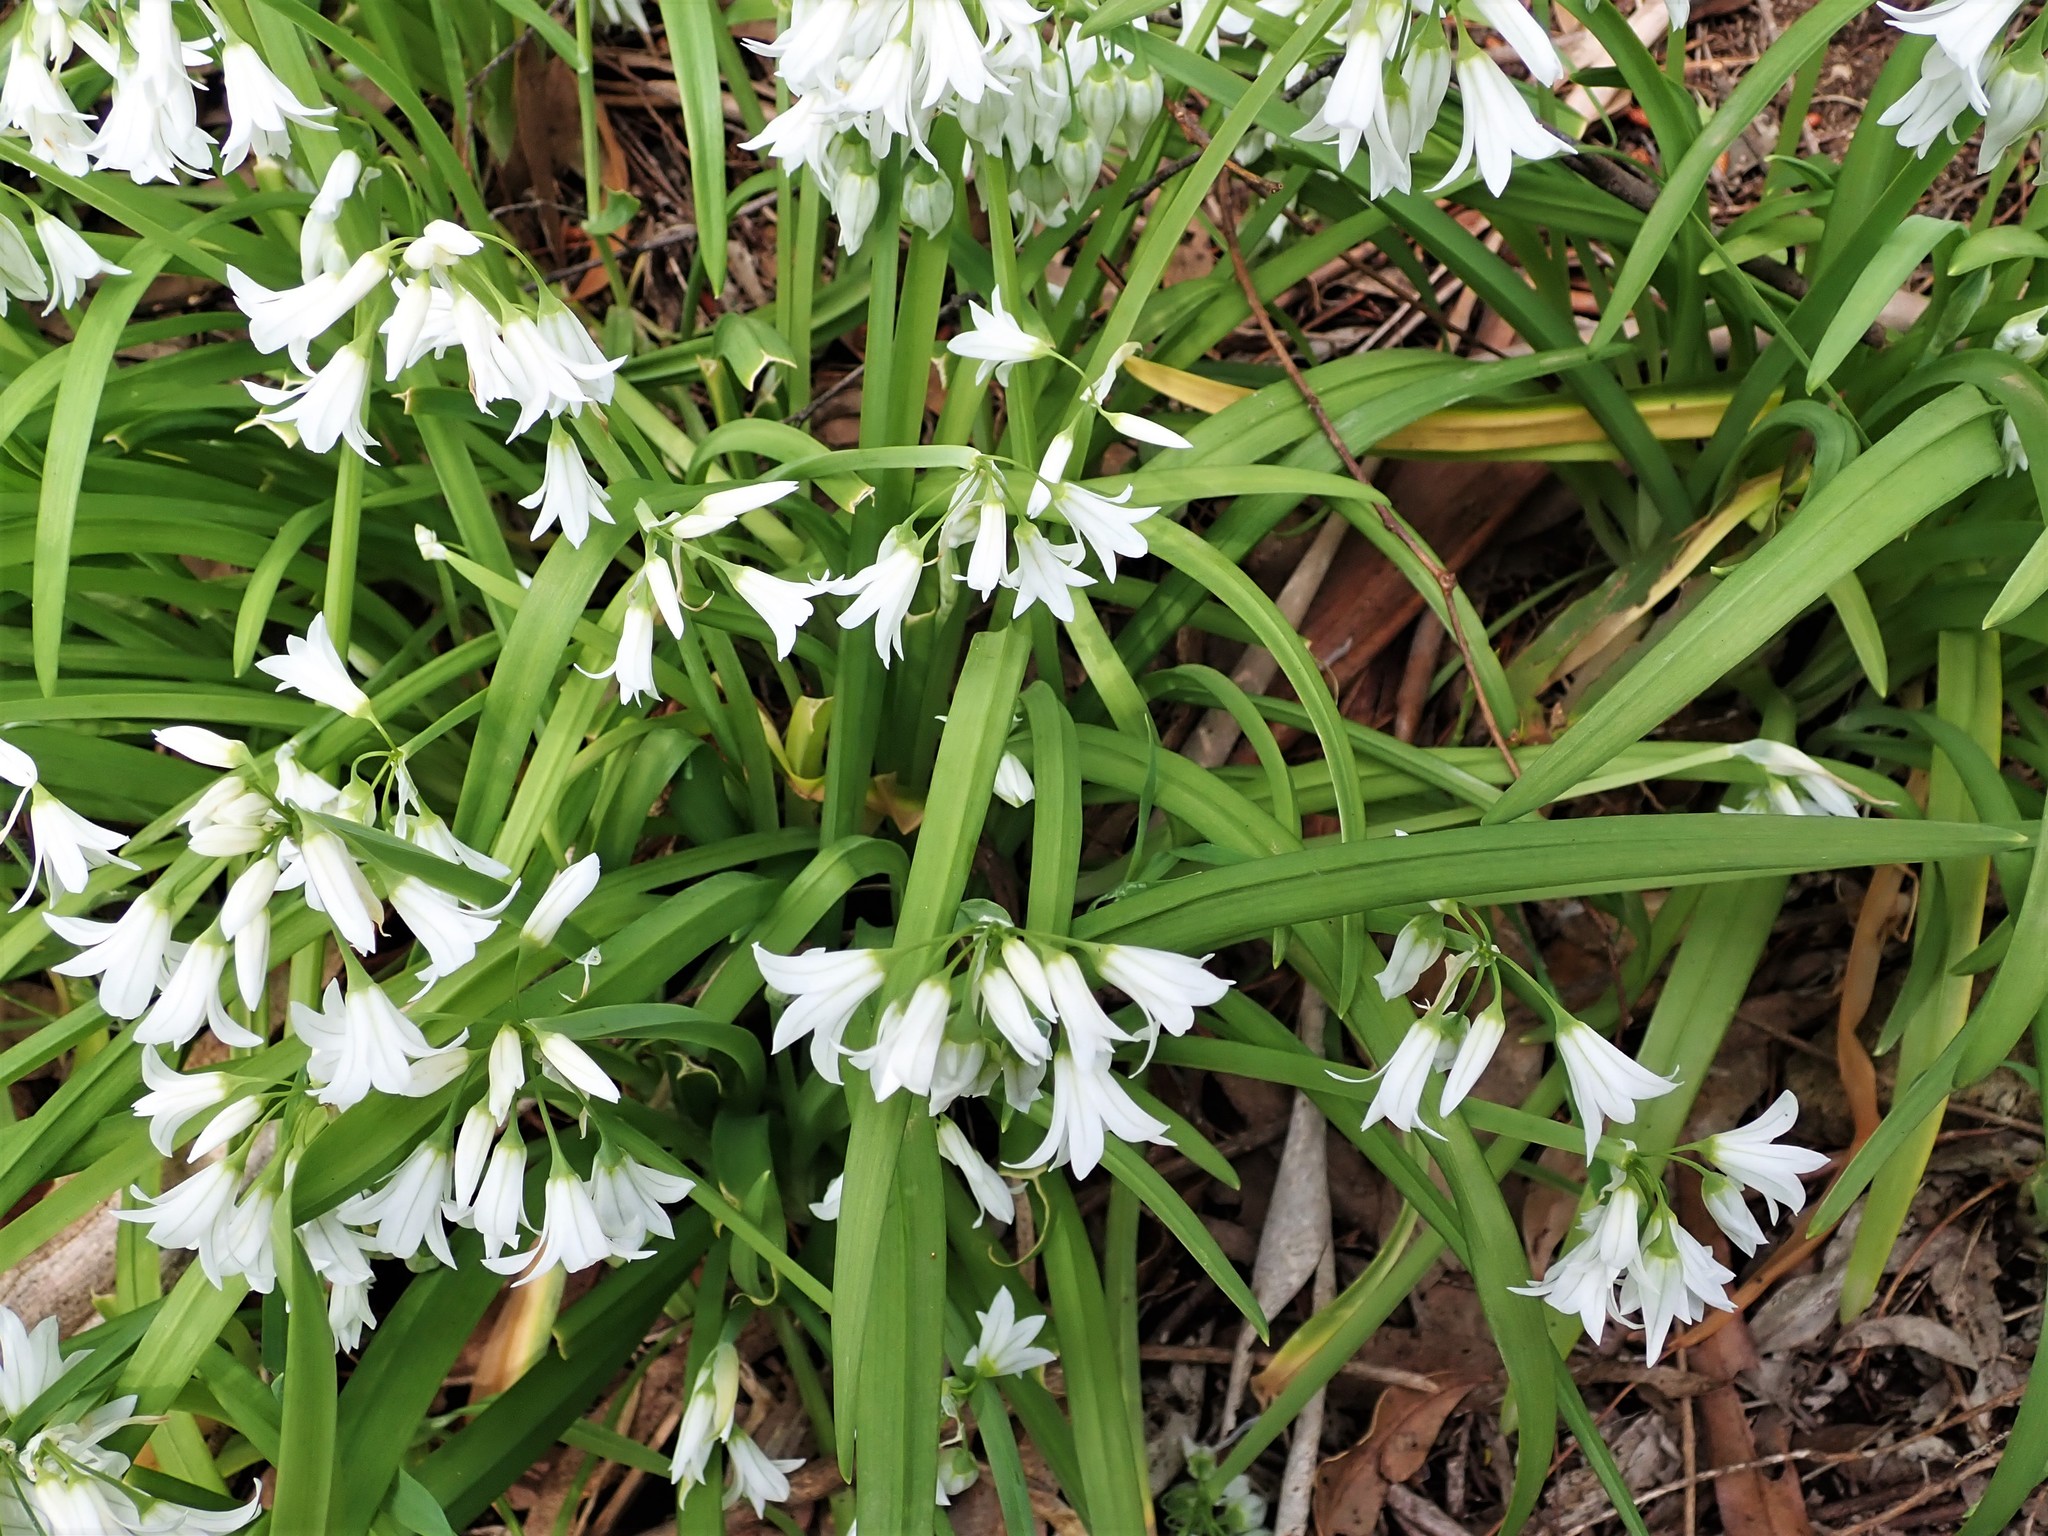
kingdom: Plantae
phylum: Tracheophyta
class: Liliopsida
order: Asparagales
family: Amaryllidaceae
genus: Allium
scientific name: Allium triquetrum
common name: Three-cornered garlic
